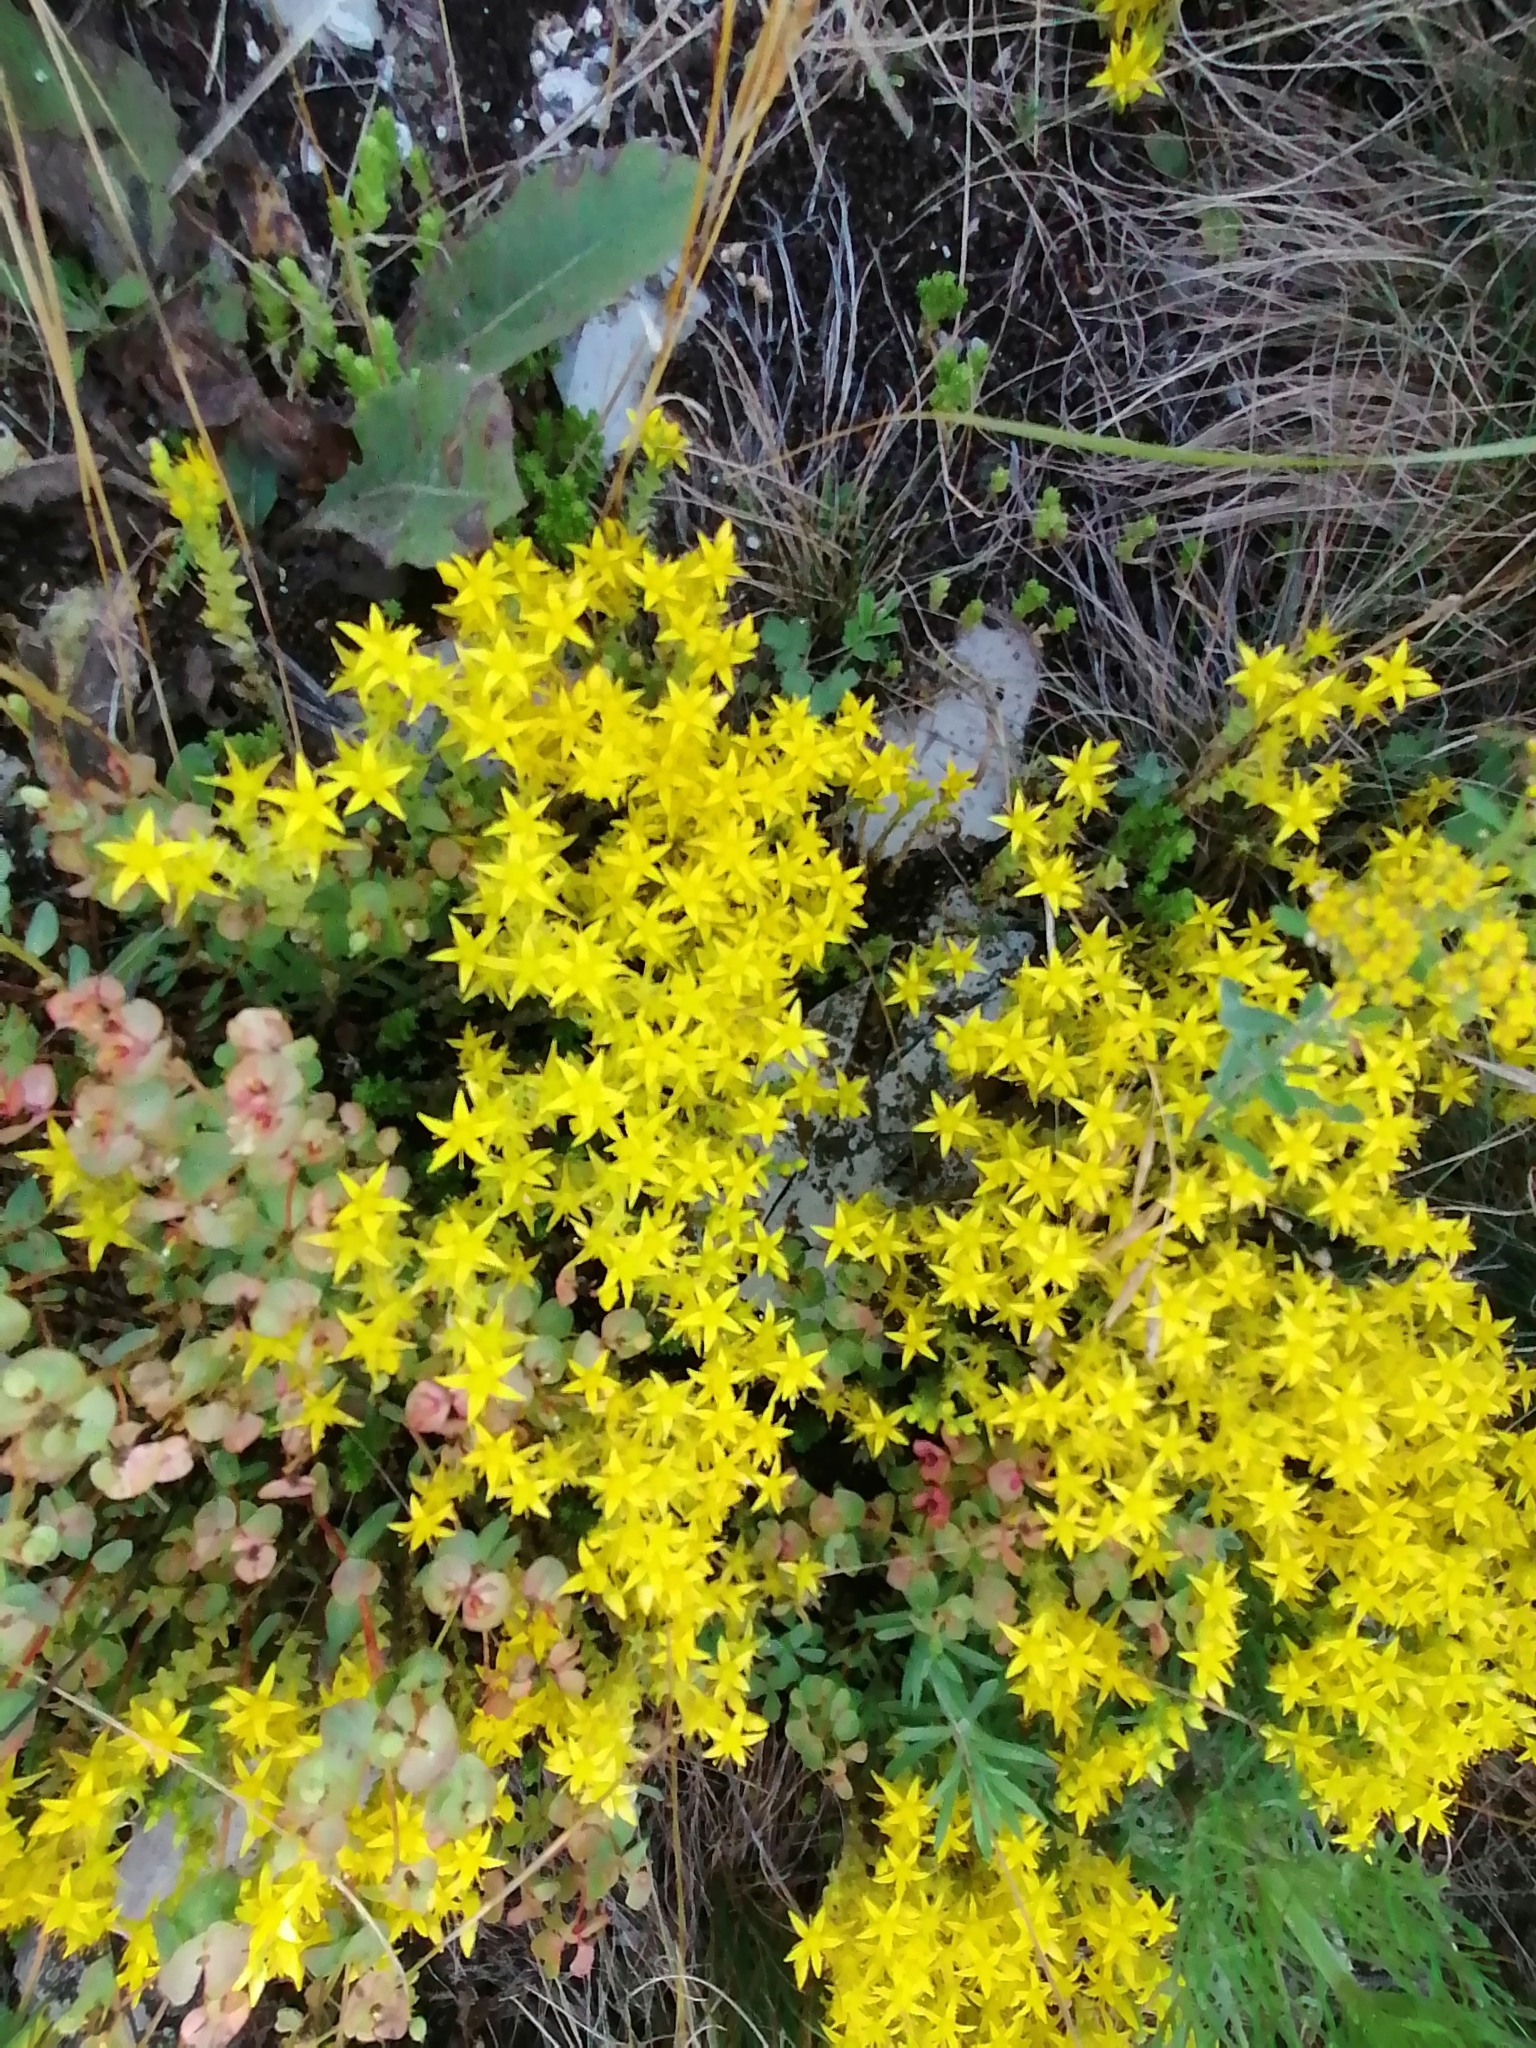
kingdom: Plantae
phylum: Tracheophyta
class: Magnoliopsida
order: Saxifragales
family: Crassulaceae
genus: Sedum
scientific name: Sedum acre
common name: Biting stonecrop
